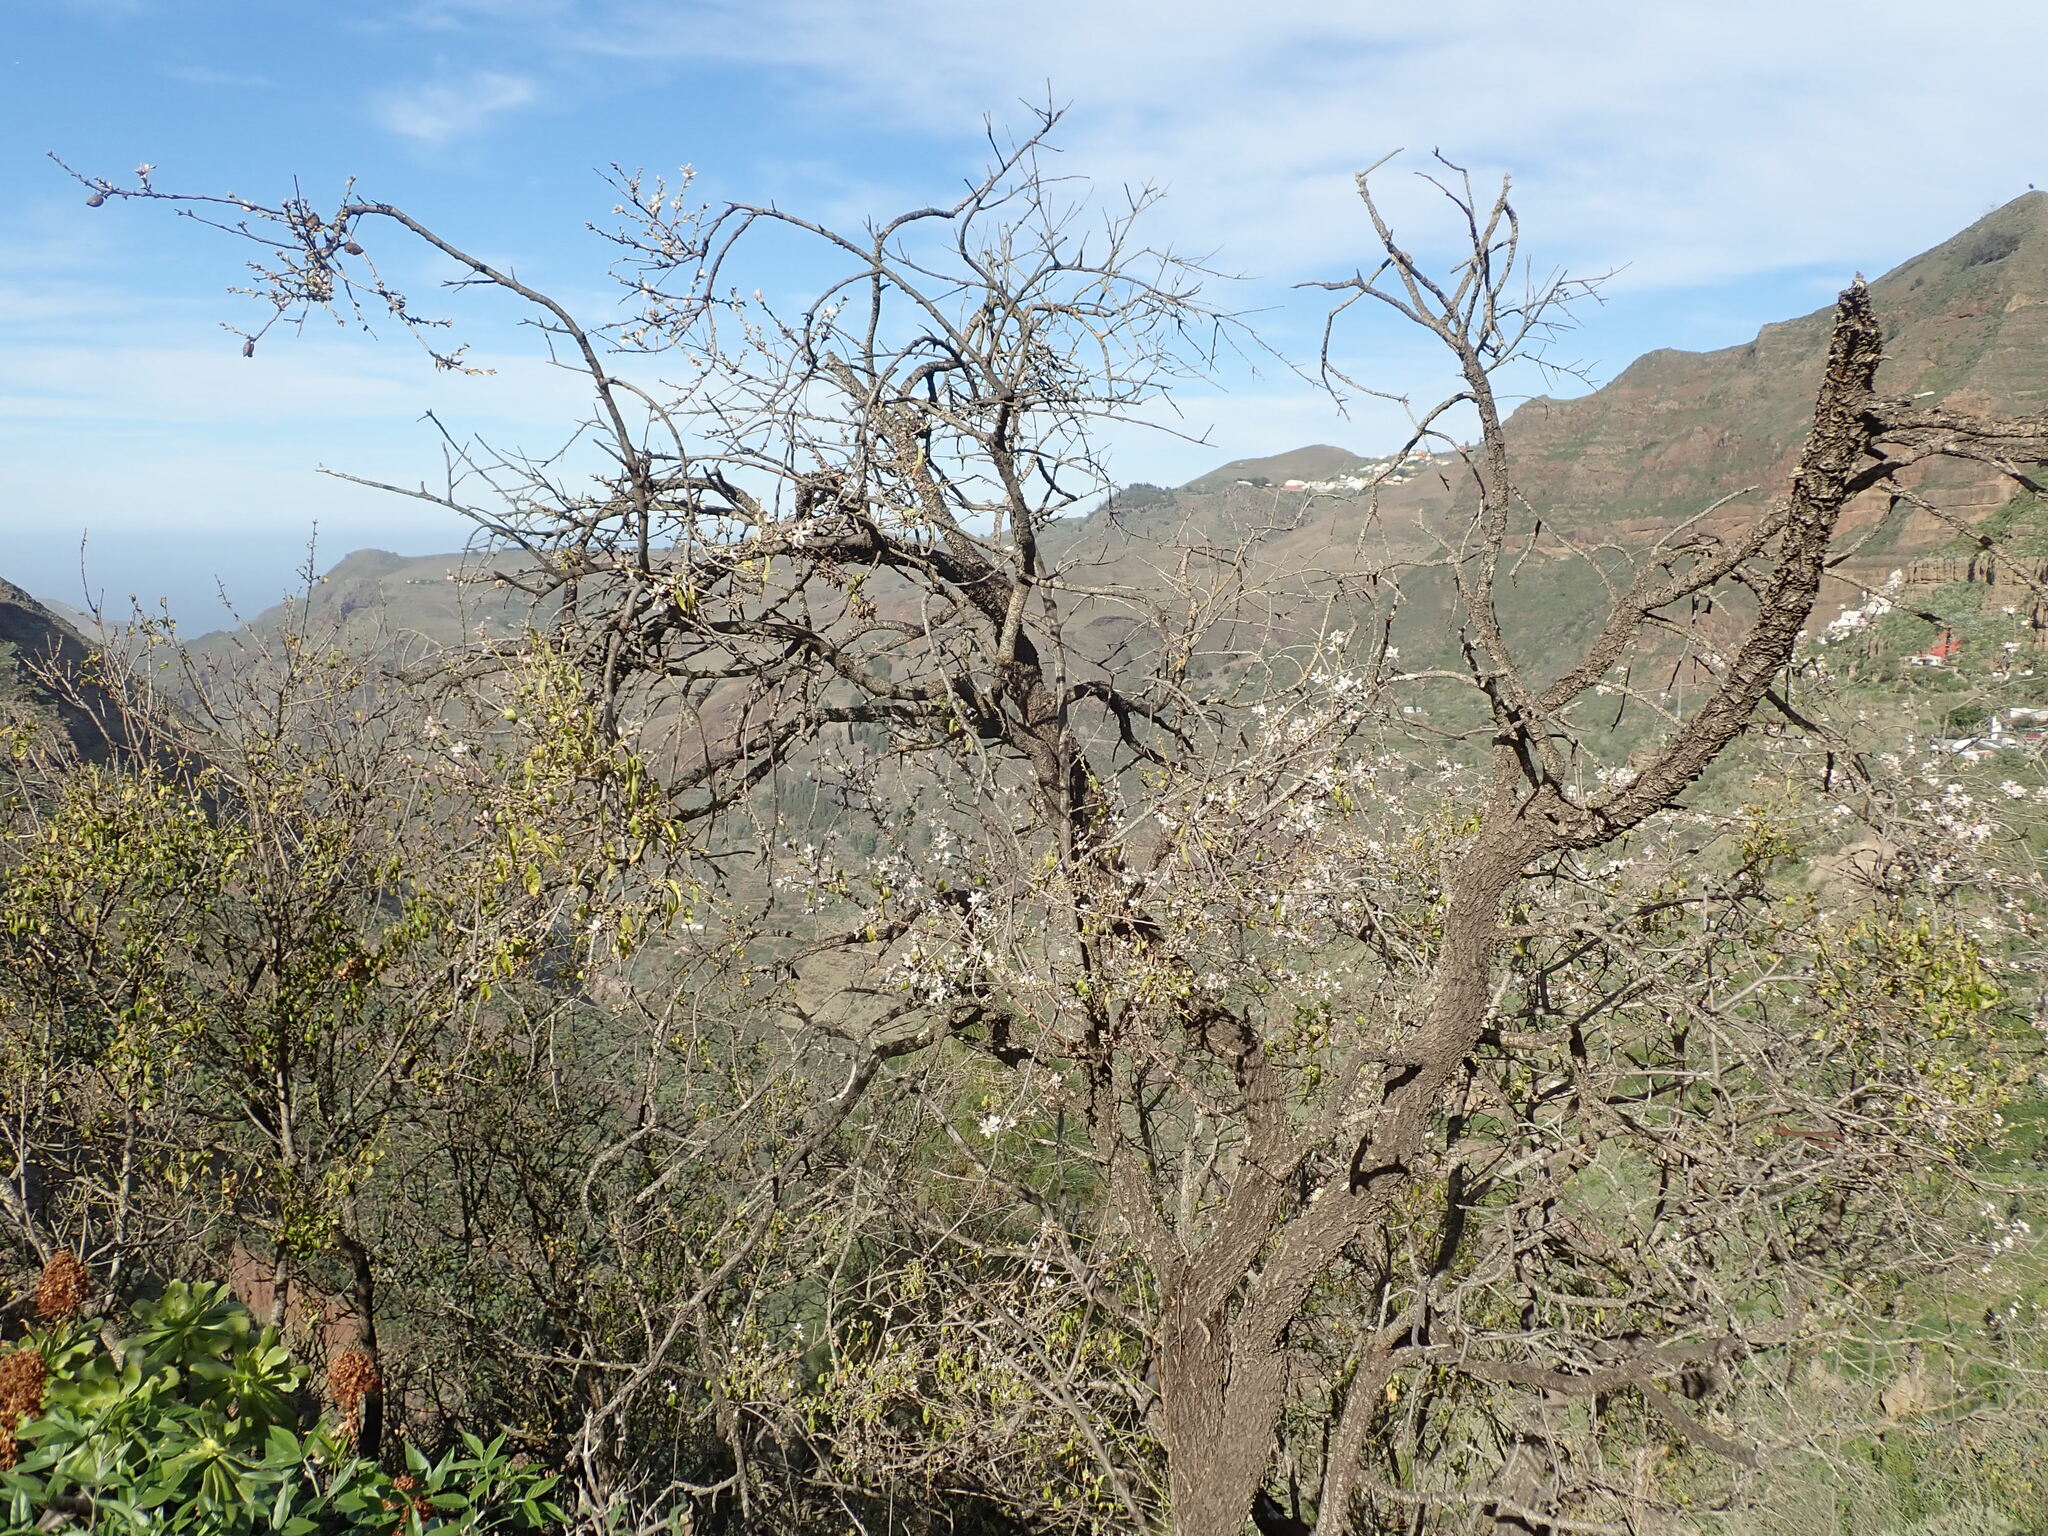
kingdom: Plantae
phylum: Tracheophyta
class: Magnoliopsida
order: Rosales
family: Rosaceae
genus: Prunus
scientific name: Prunus amygdalus
